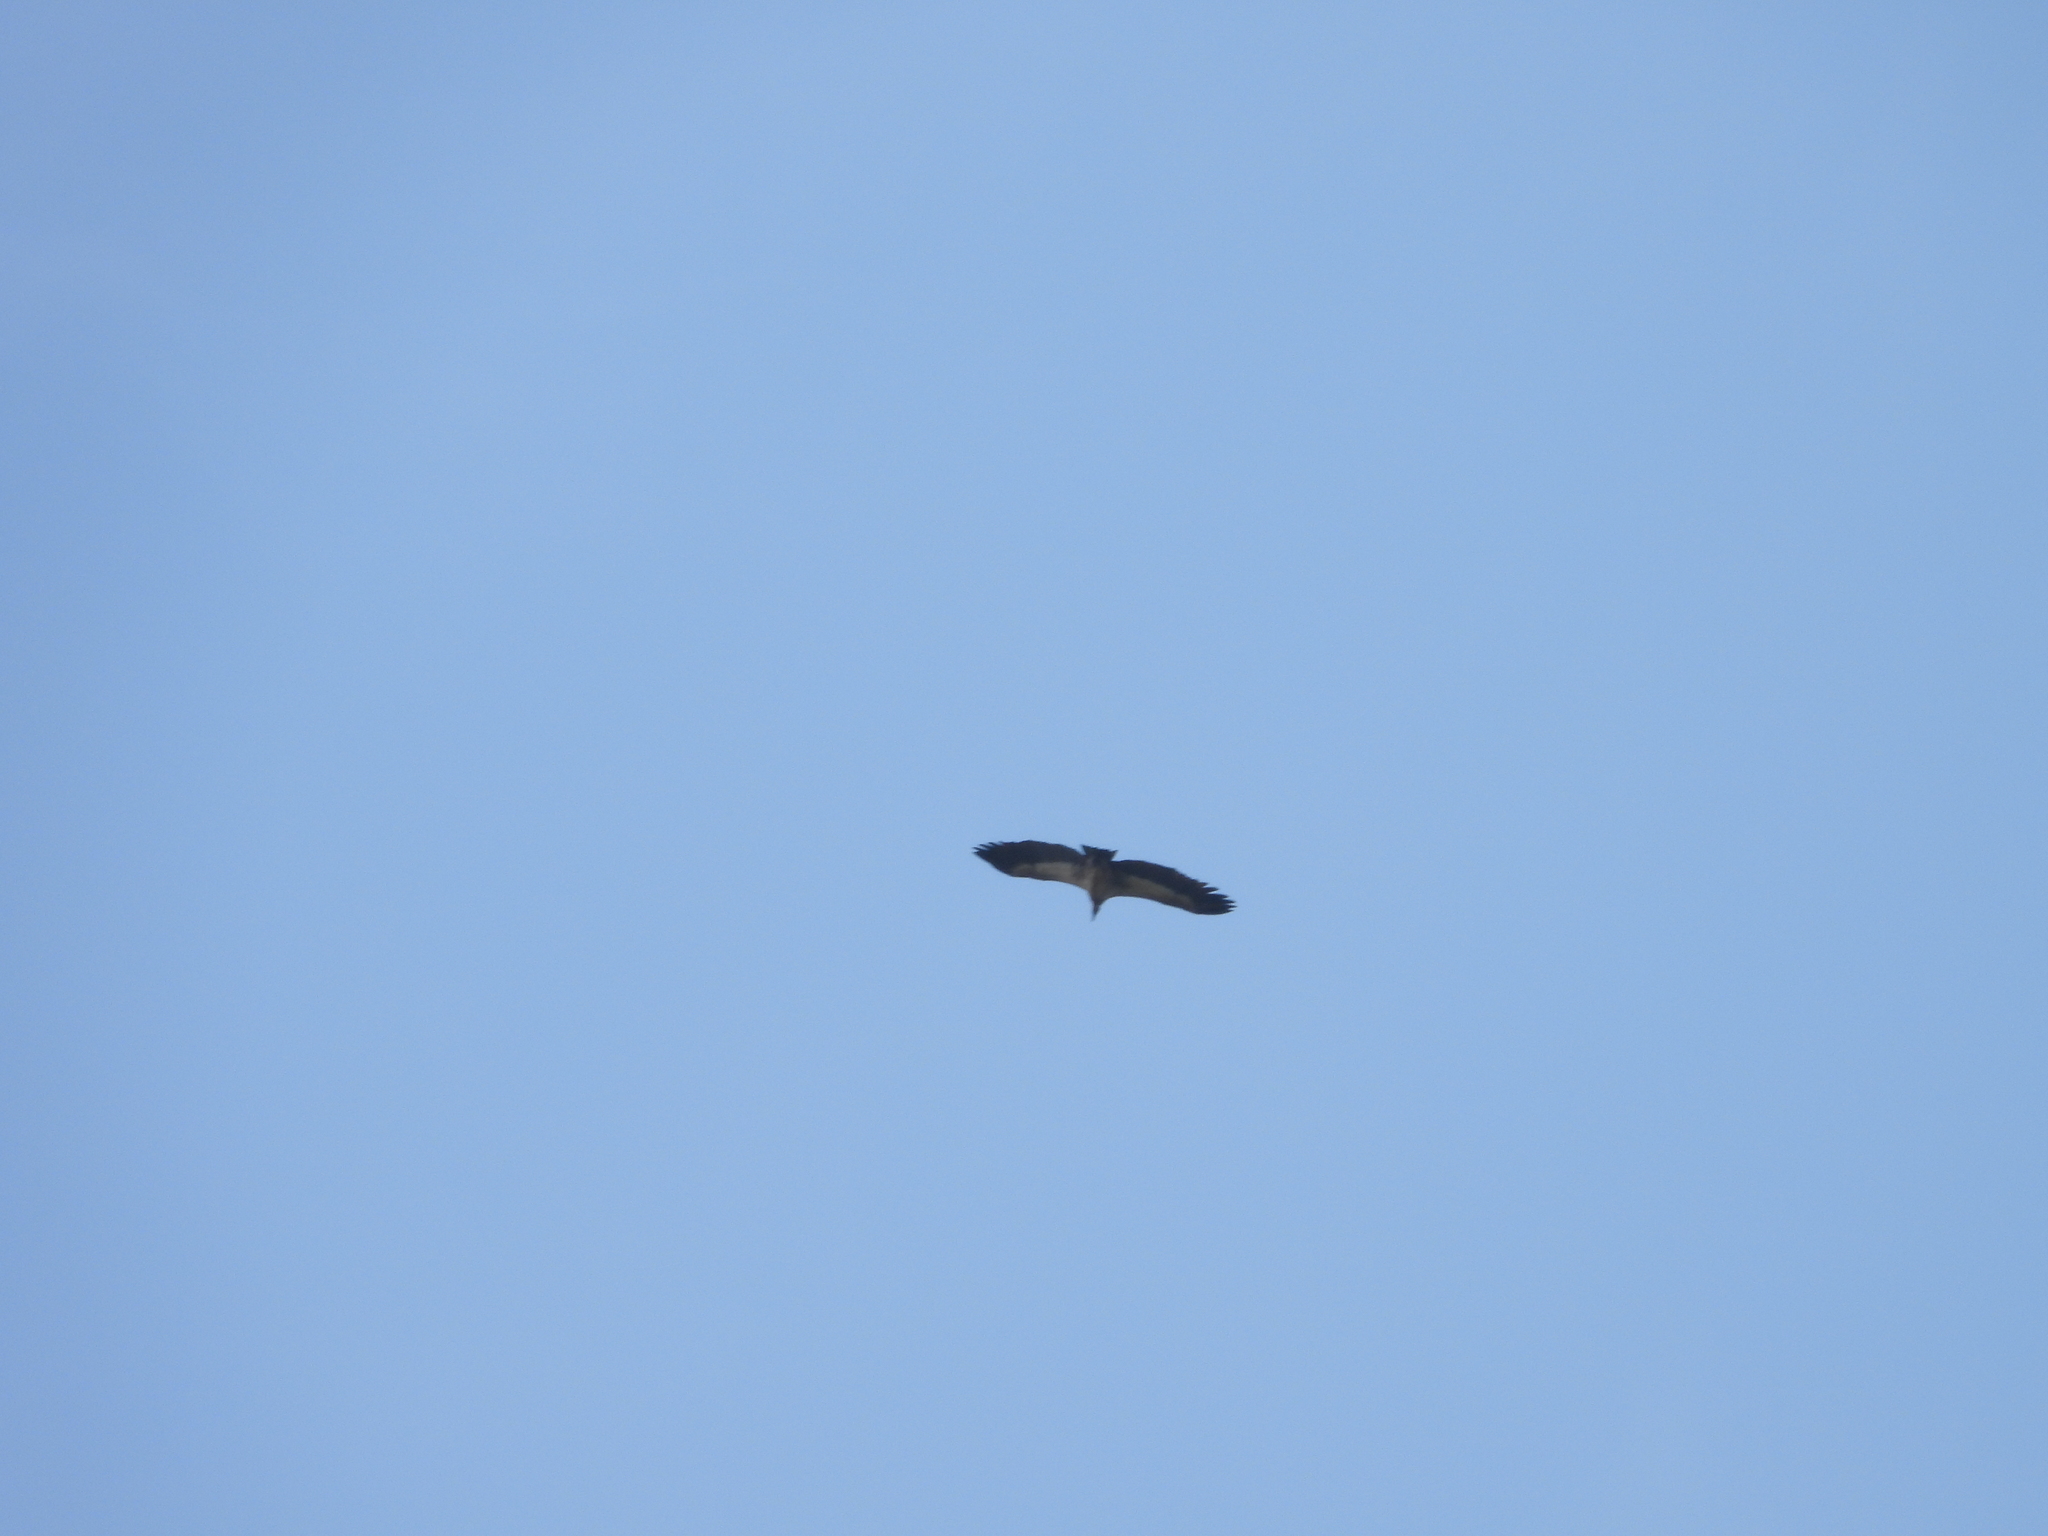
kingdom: Animalia
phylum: Chordata
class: Aves
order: Accipitriformes
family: Accipitridae
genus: Gyps
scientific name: Gyps africanus
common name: White-backed vulture
